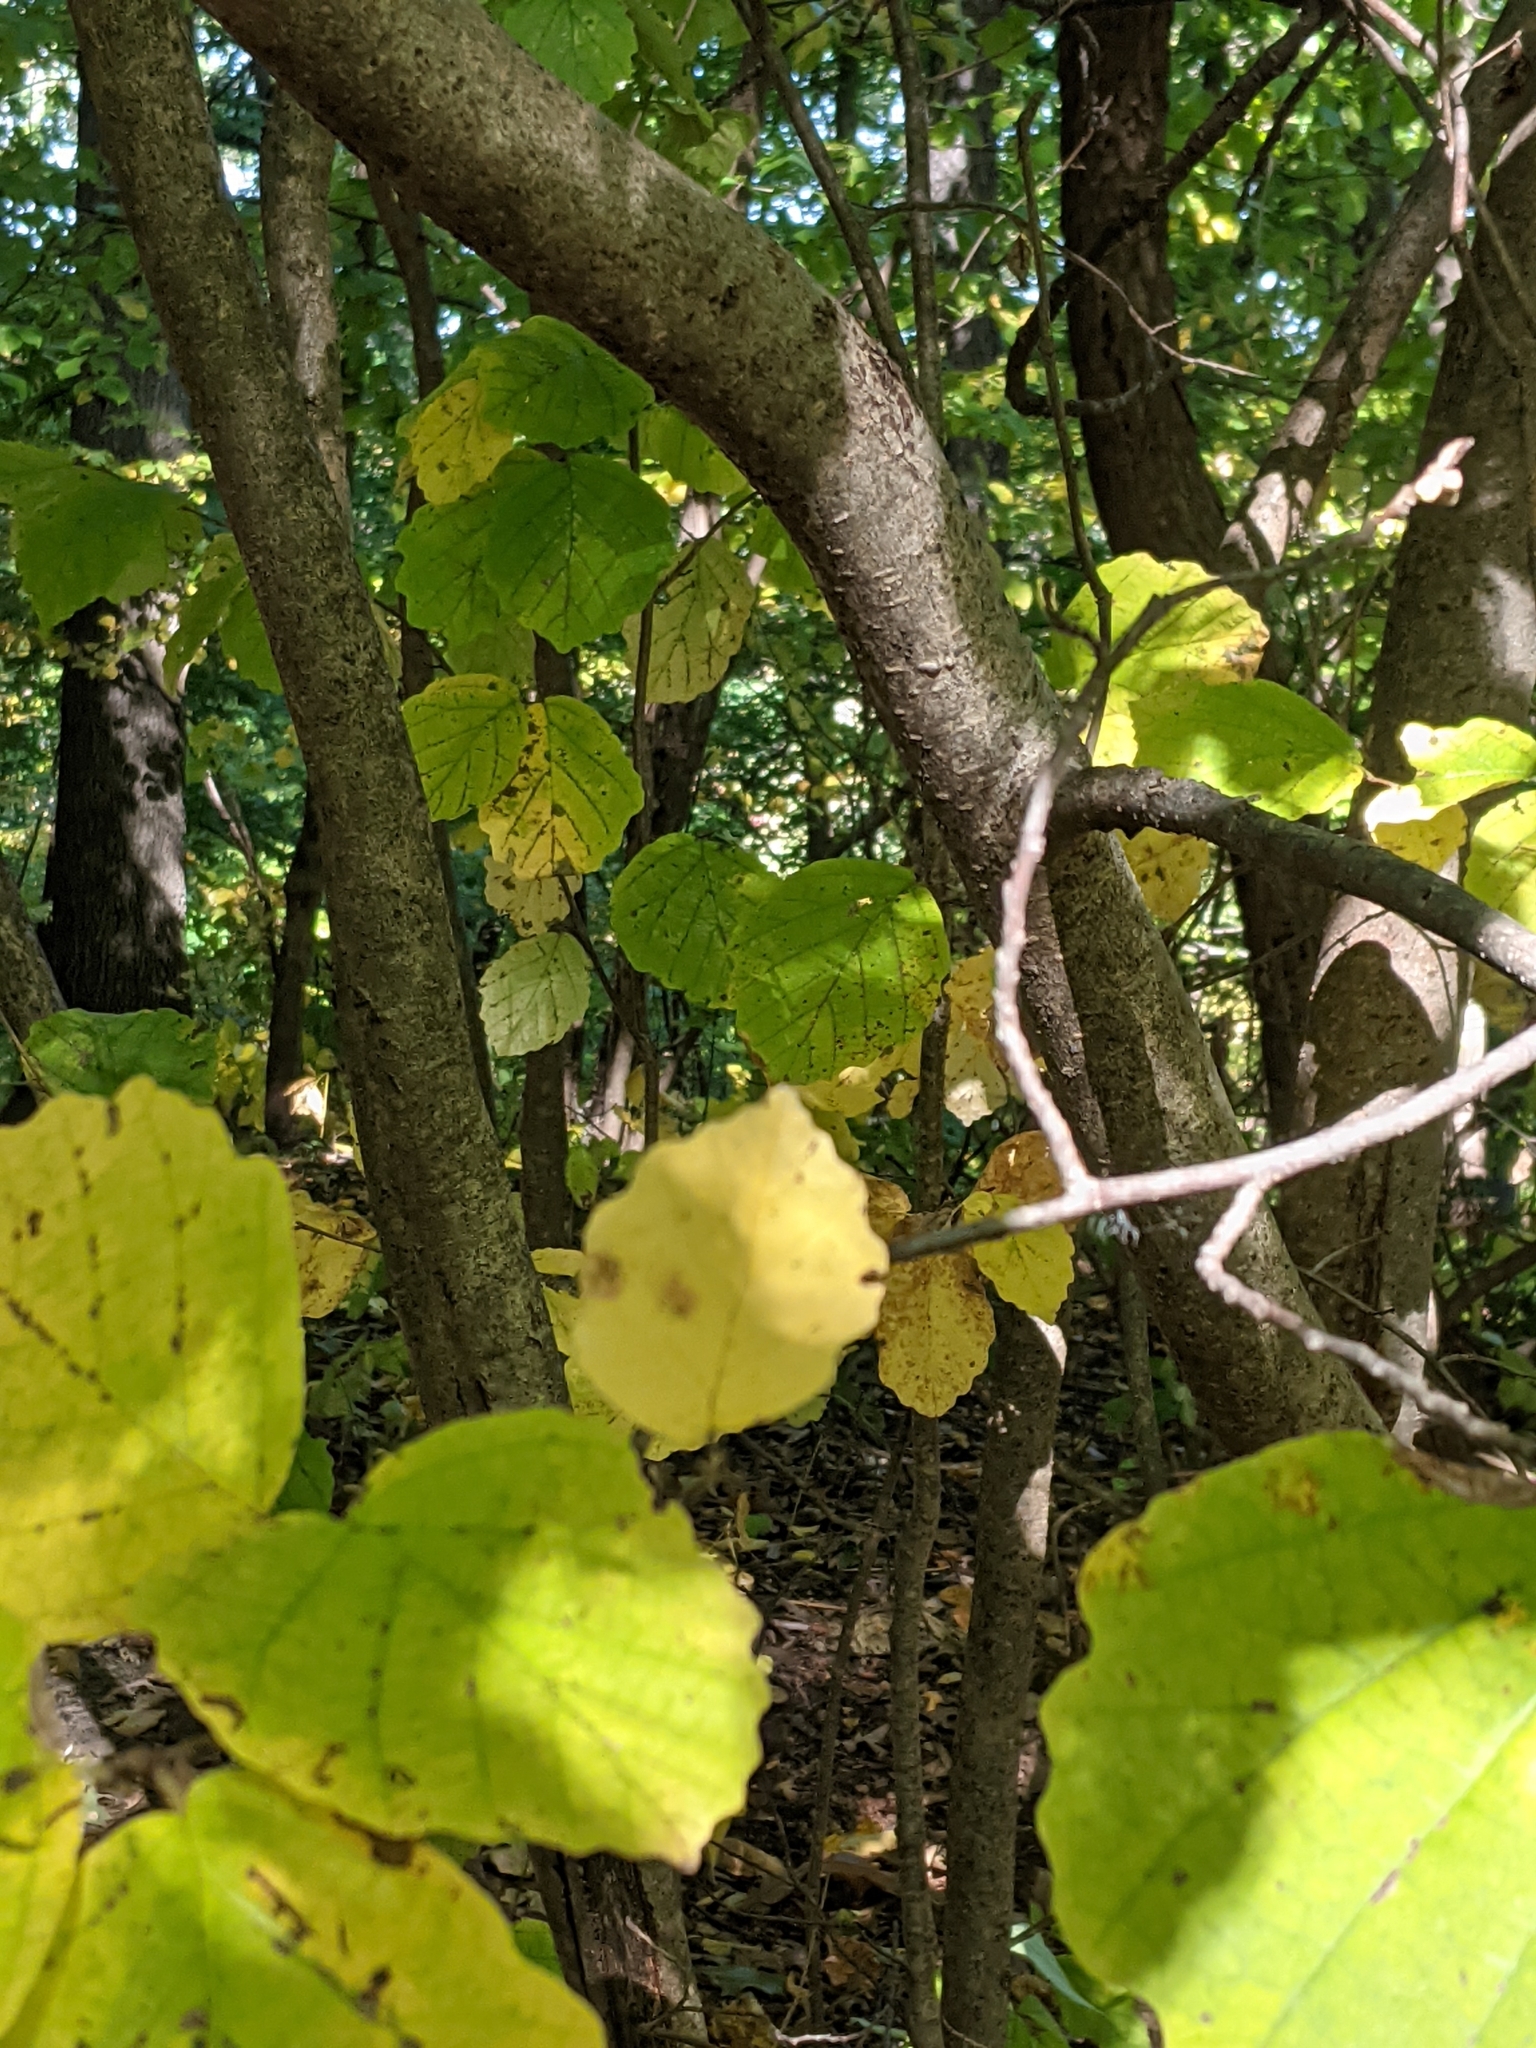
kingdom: Plantae
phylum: Tracheophyta
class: Magnoliopsida
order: Saxifragales
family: Hamamelidaceae
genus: Hamamelis
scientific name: Hamamelis virginiana
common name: Witch-hazel
